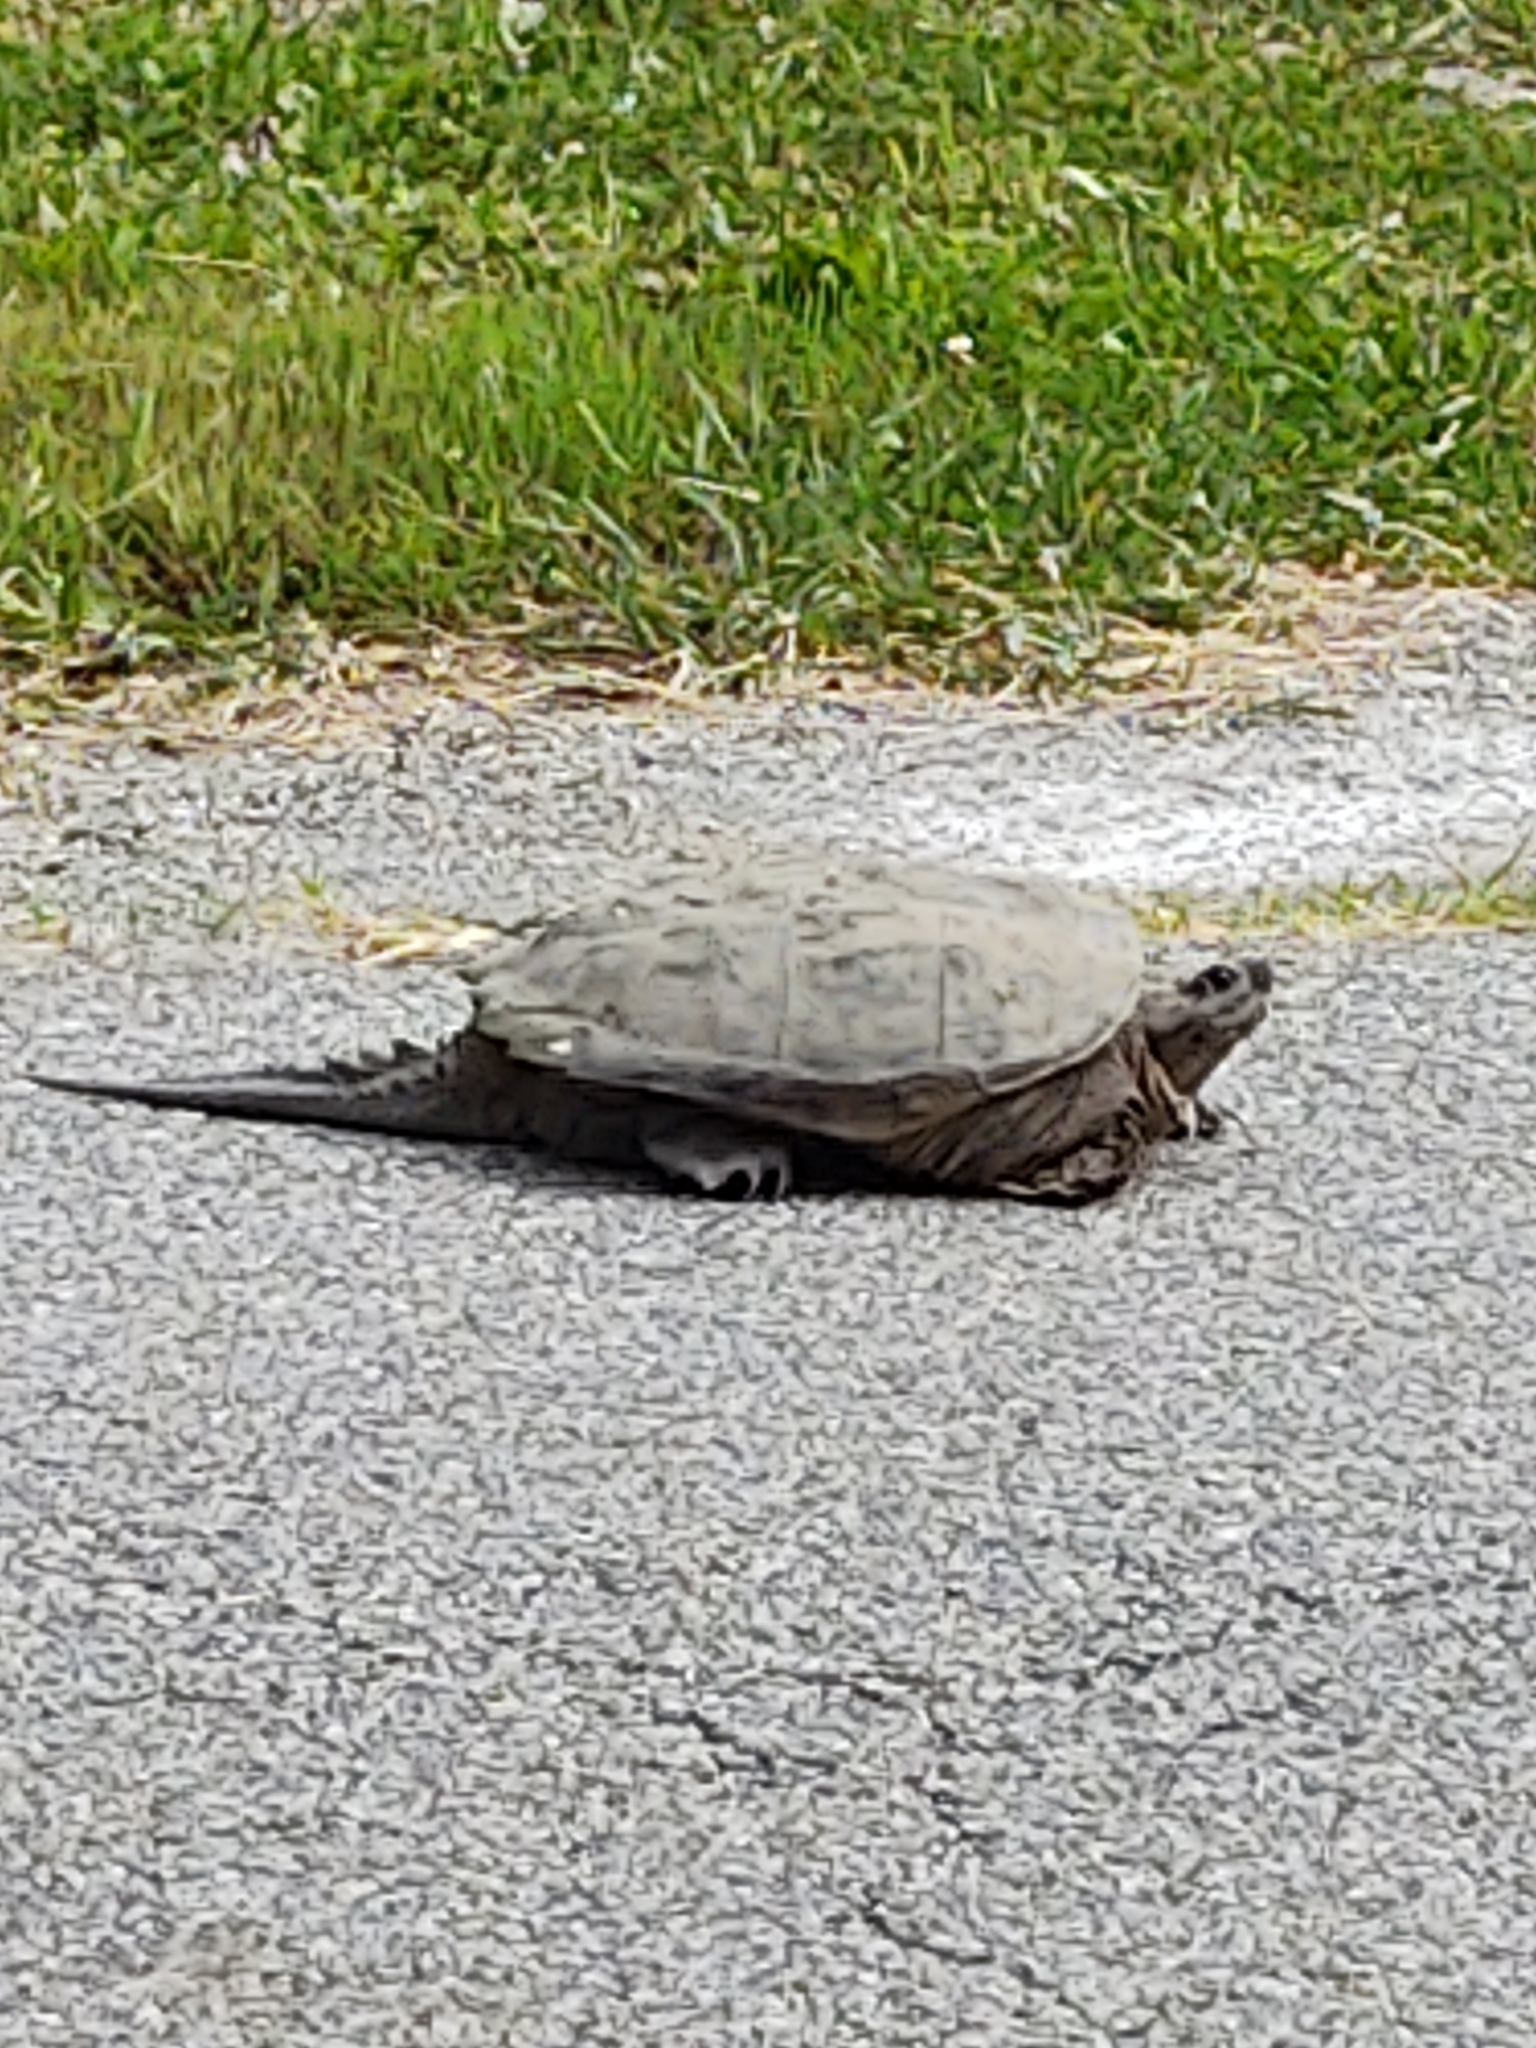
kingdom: Animalia
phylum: Chordata
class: Testudines
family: Chelydridae
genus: Chelydra
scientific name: Chelydra serpentina
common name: Common snapping turtle
